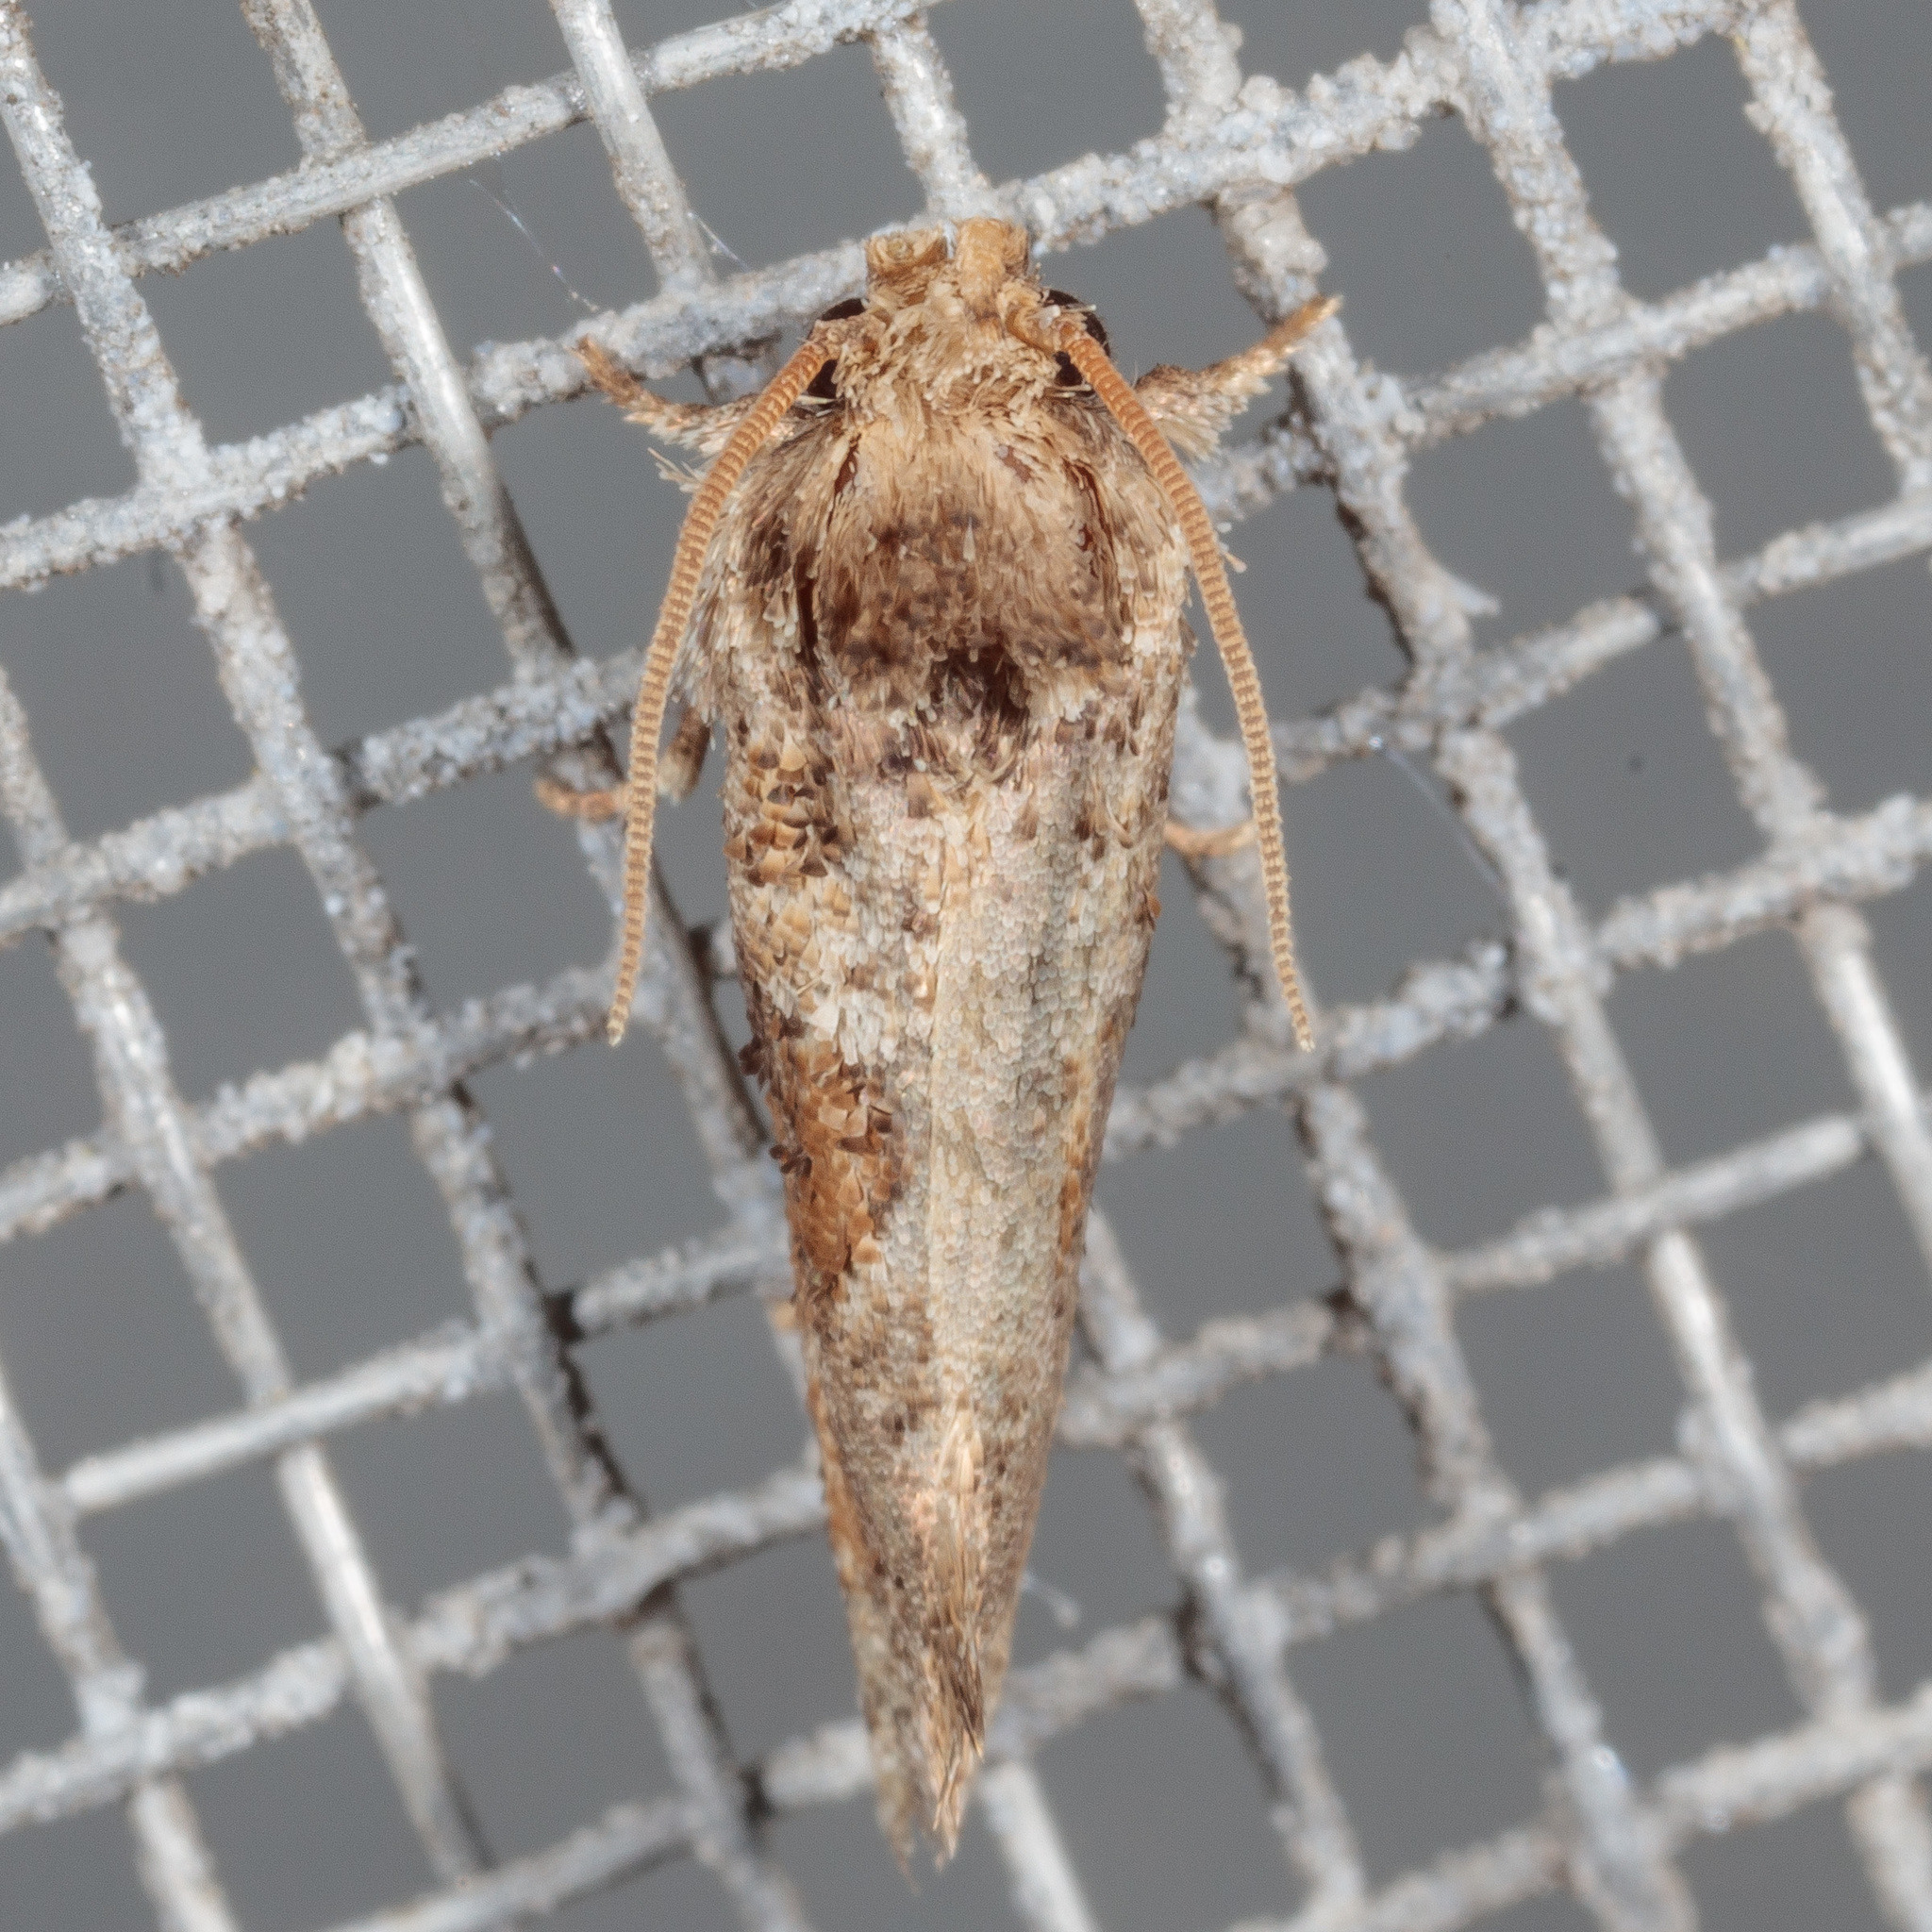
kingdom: Animalia
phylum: Arthropoda
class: Insecta
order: Lepidoptera
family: Tineidae
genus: Acrolophus
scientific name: Acrolophus piger
